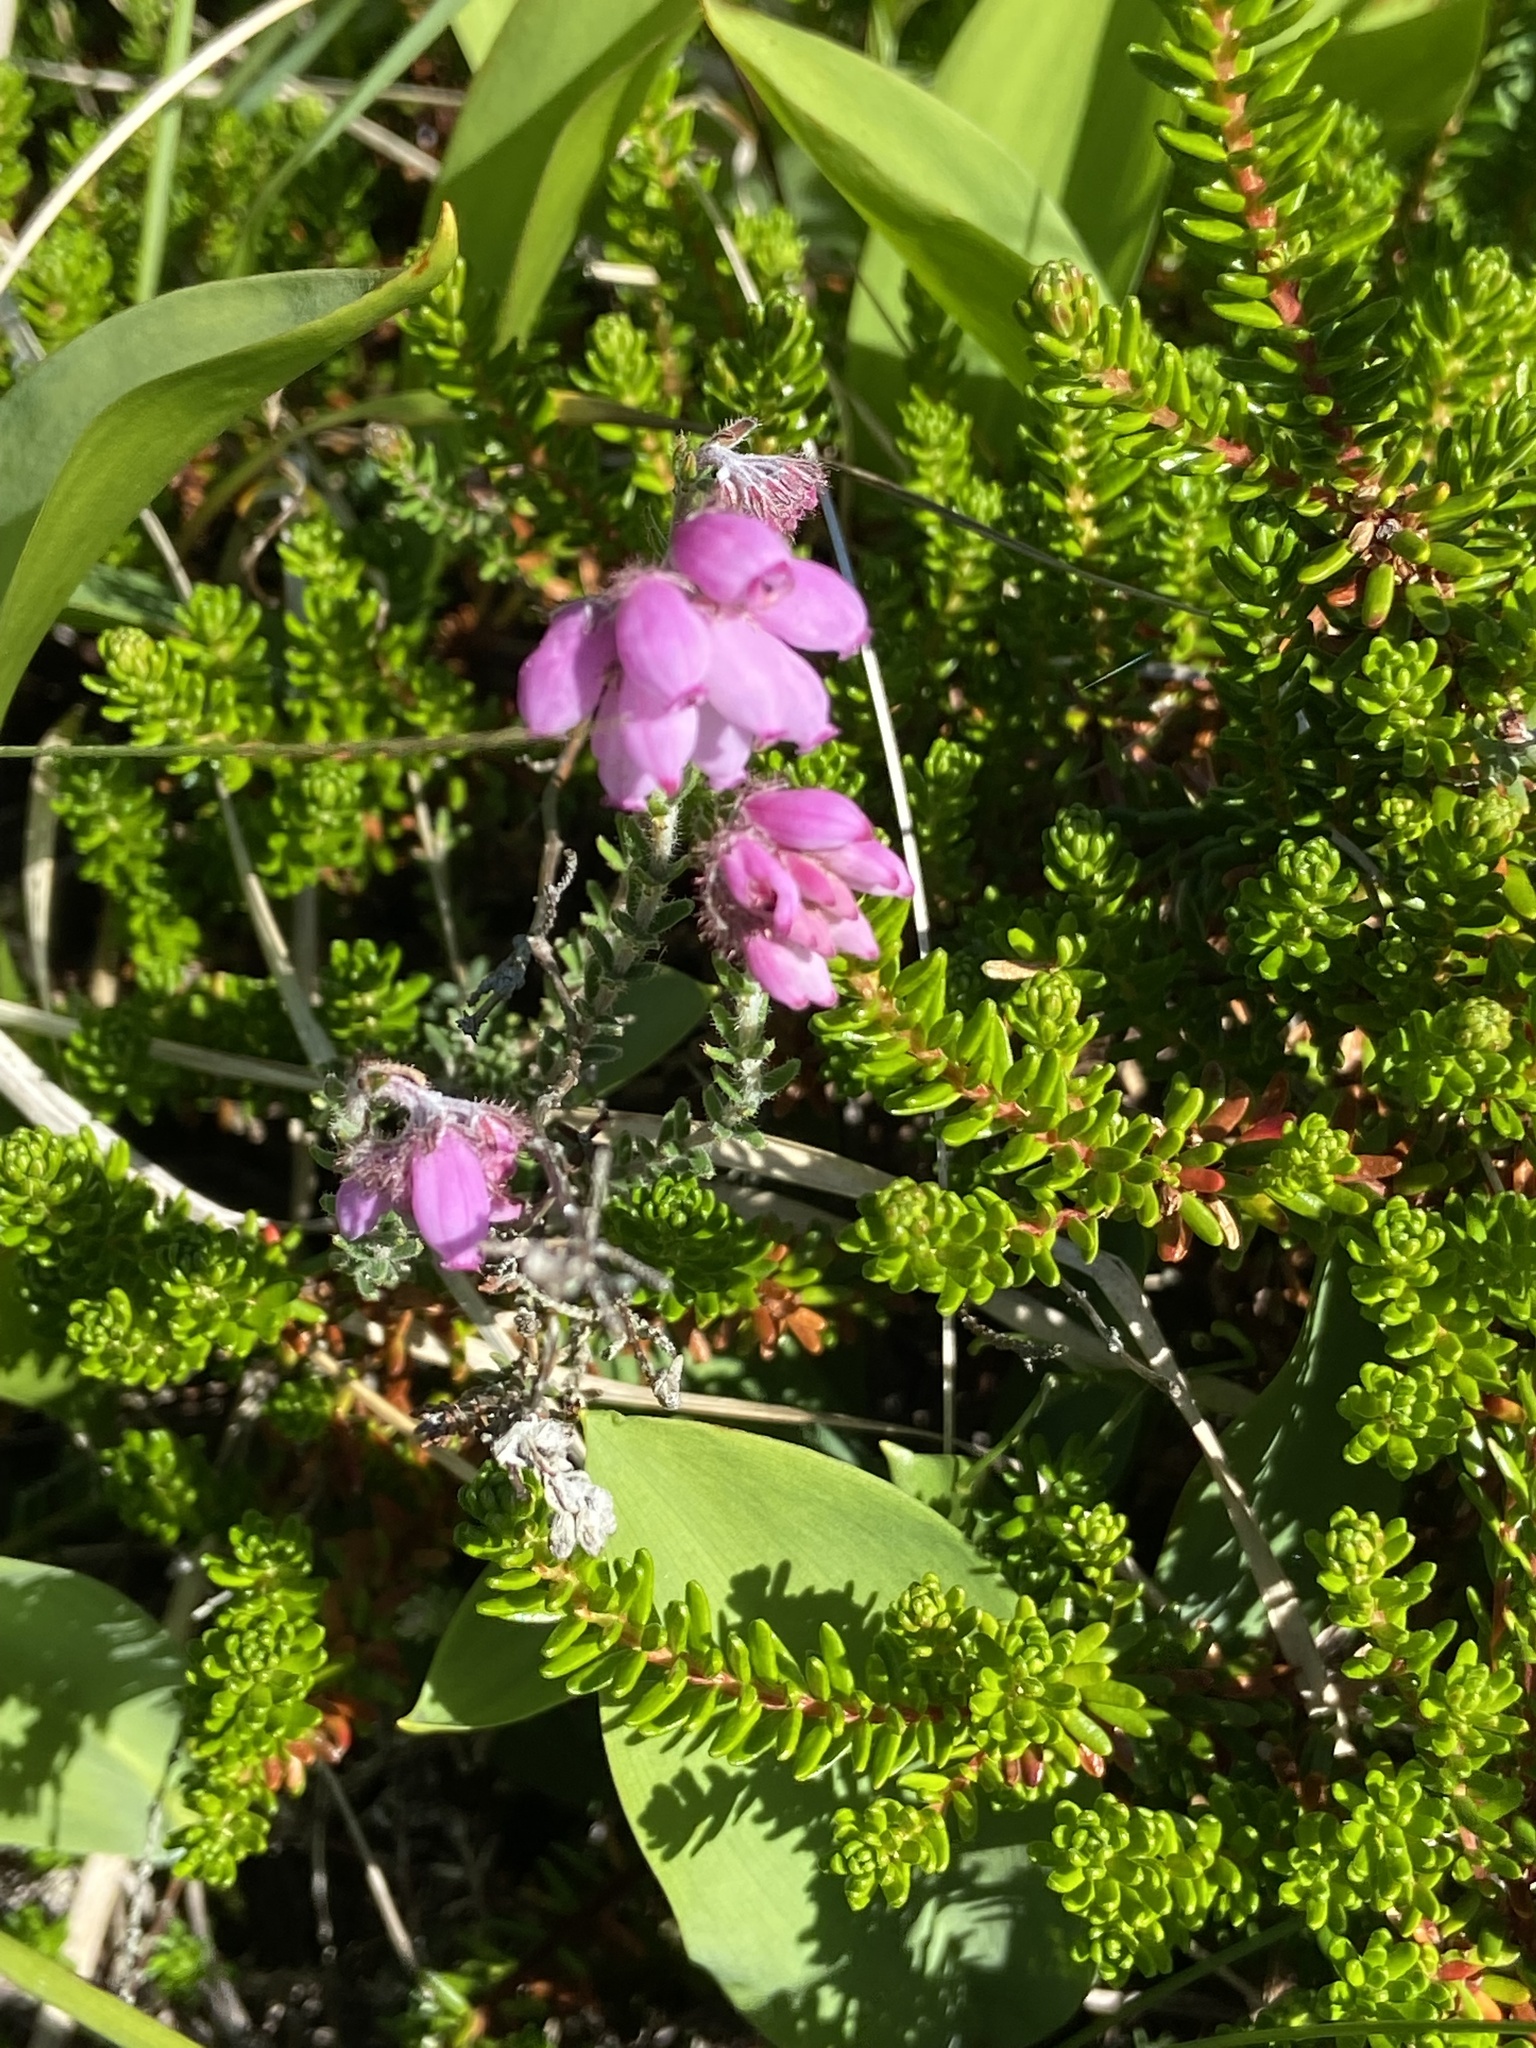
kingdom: Plantae
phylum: Tracheophyta
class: Magnoliopsida
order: Ericales
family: Ericaceae
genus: Erica
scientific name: Erica tetralix
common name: Cross-leaved heath
